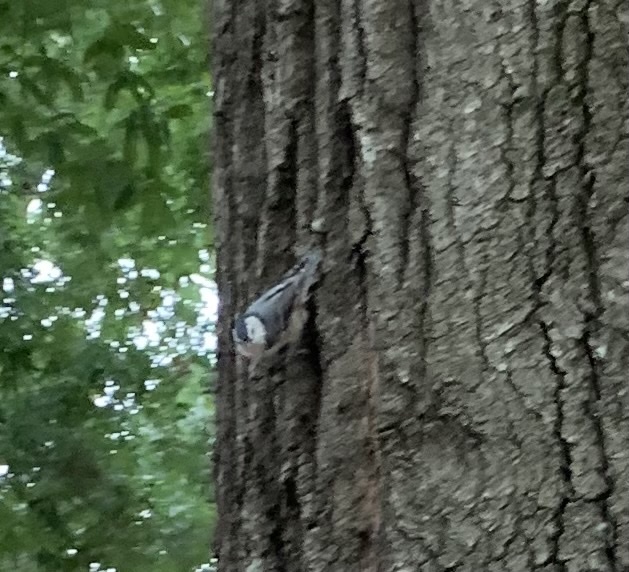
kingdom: Animalia
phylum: Chordata
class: Aves
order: Passeriformes
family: Sittidae
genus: Sitta
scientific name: Sitta carolinensis
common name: White-breasted nuthatch
